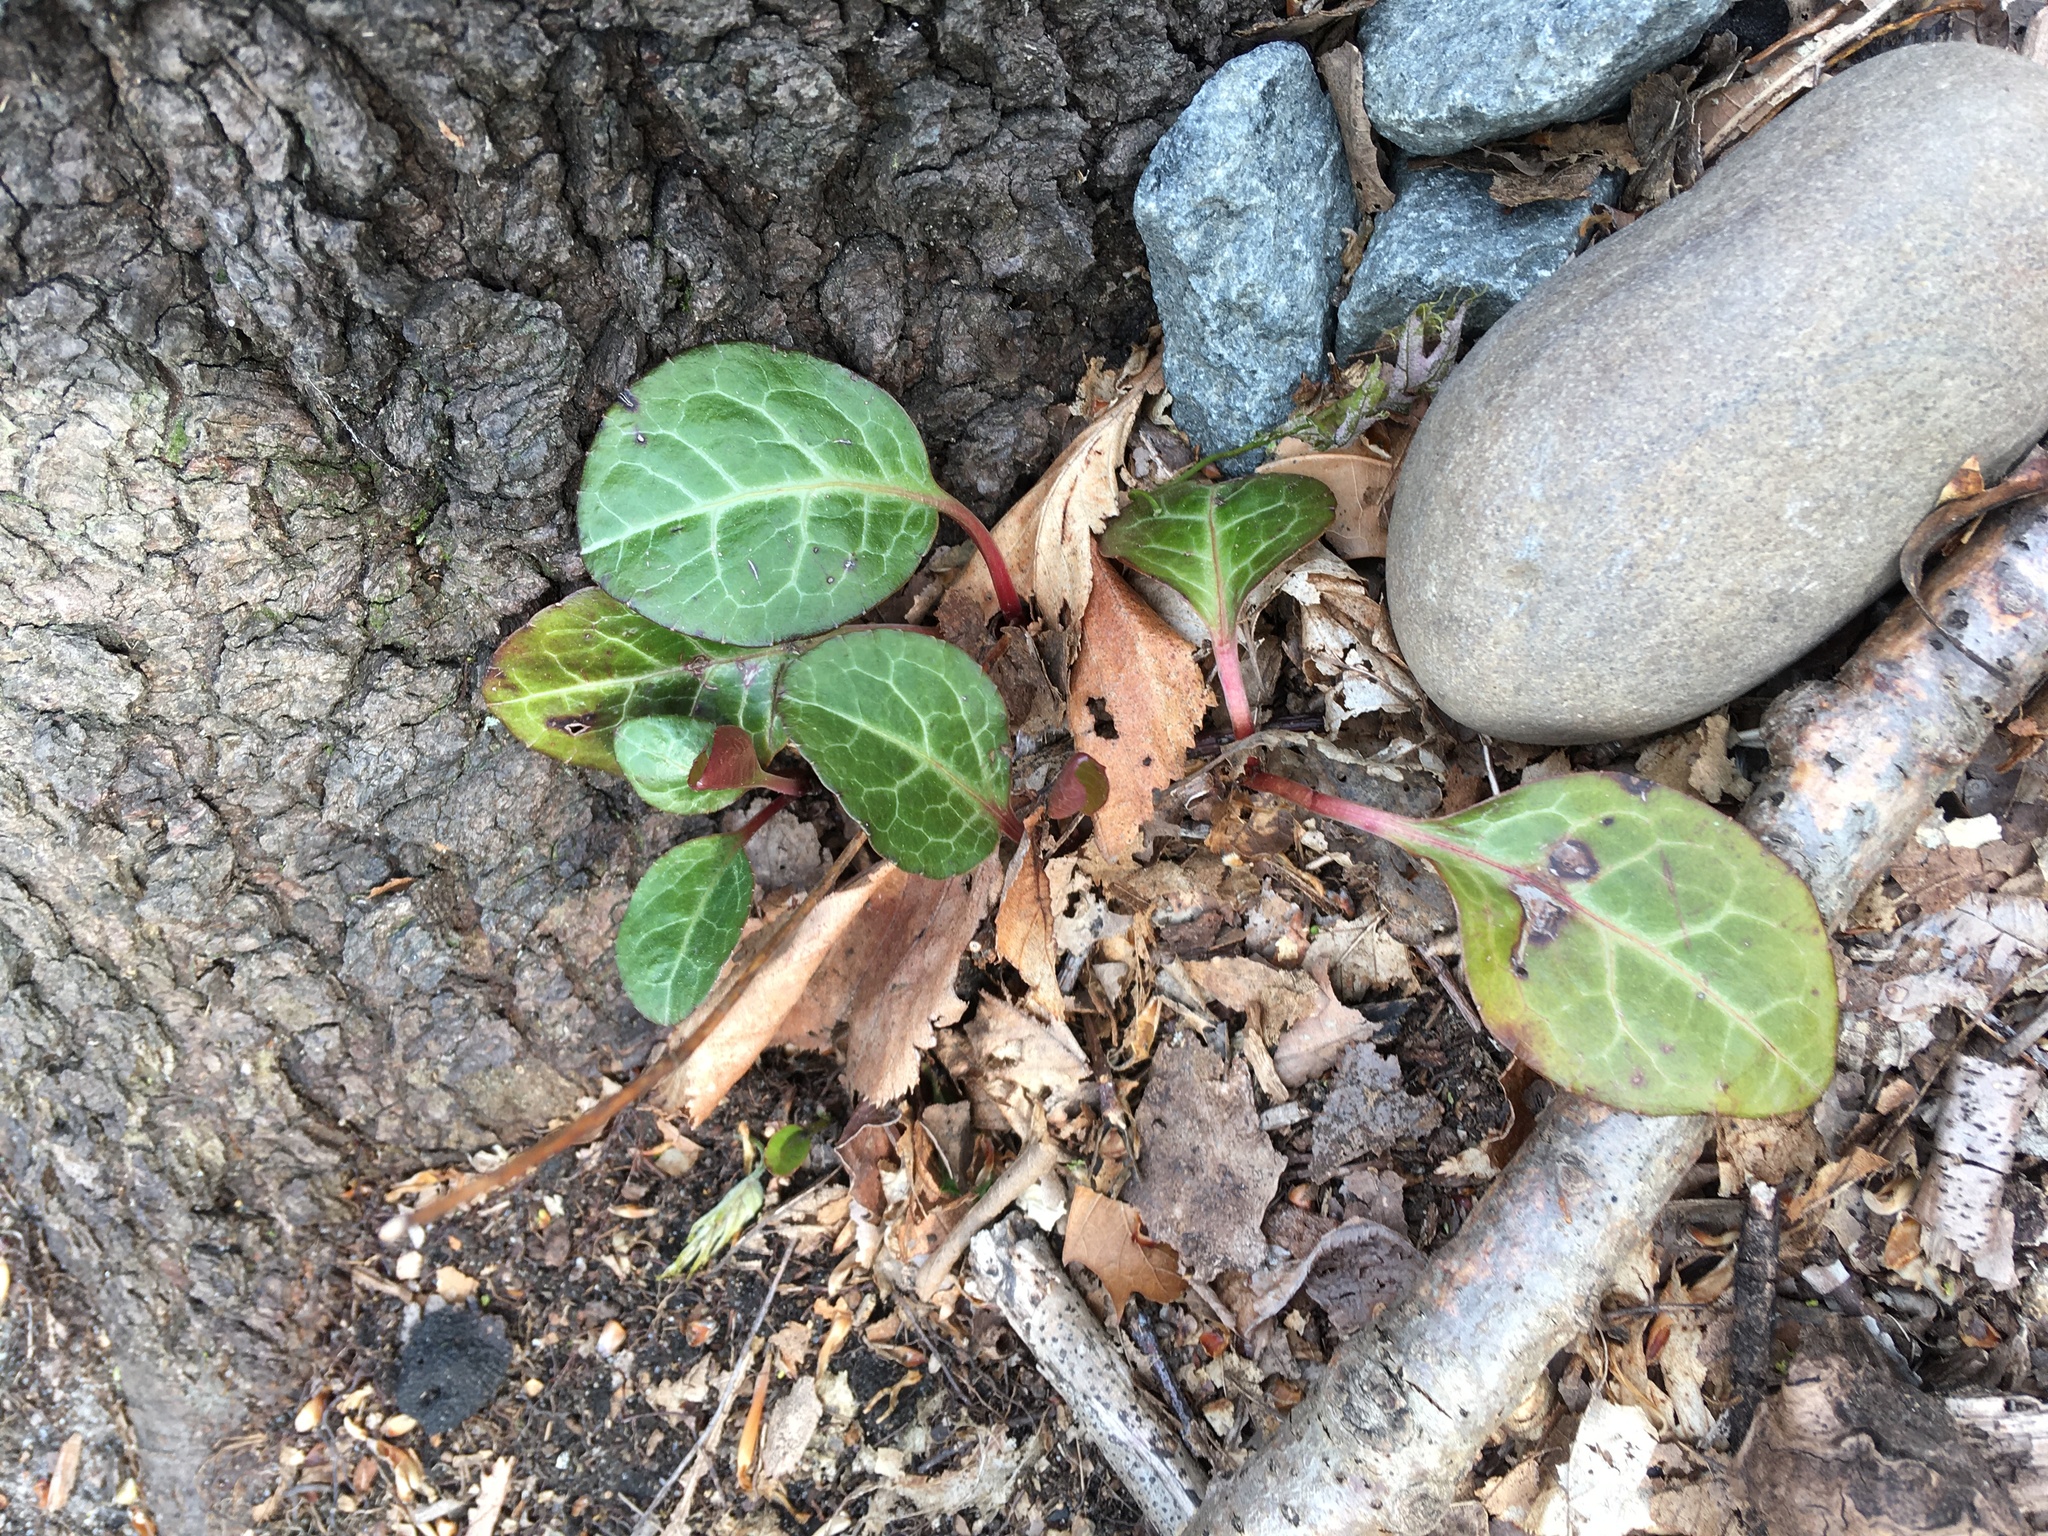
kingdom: Plantae
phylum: Tracheophyta
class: Magnoliopsida
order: Ericales
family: Ericaceae
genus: Pyrola
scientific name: Pyrola americana
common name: American wintergreen
